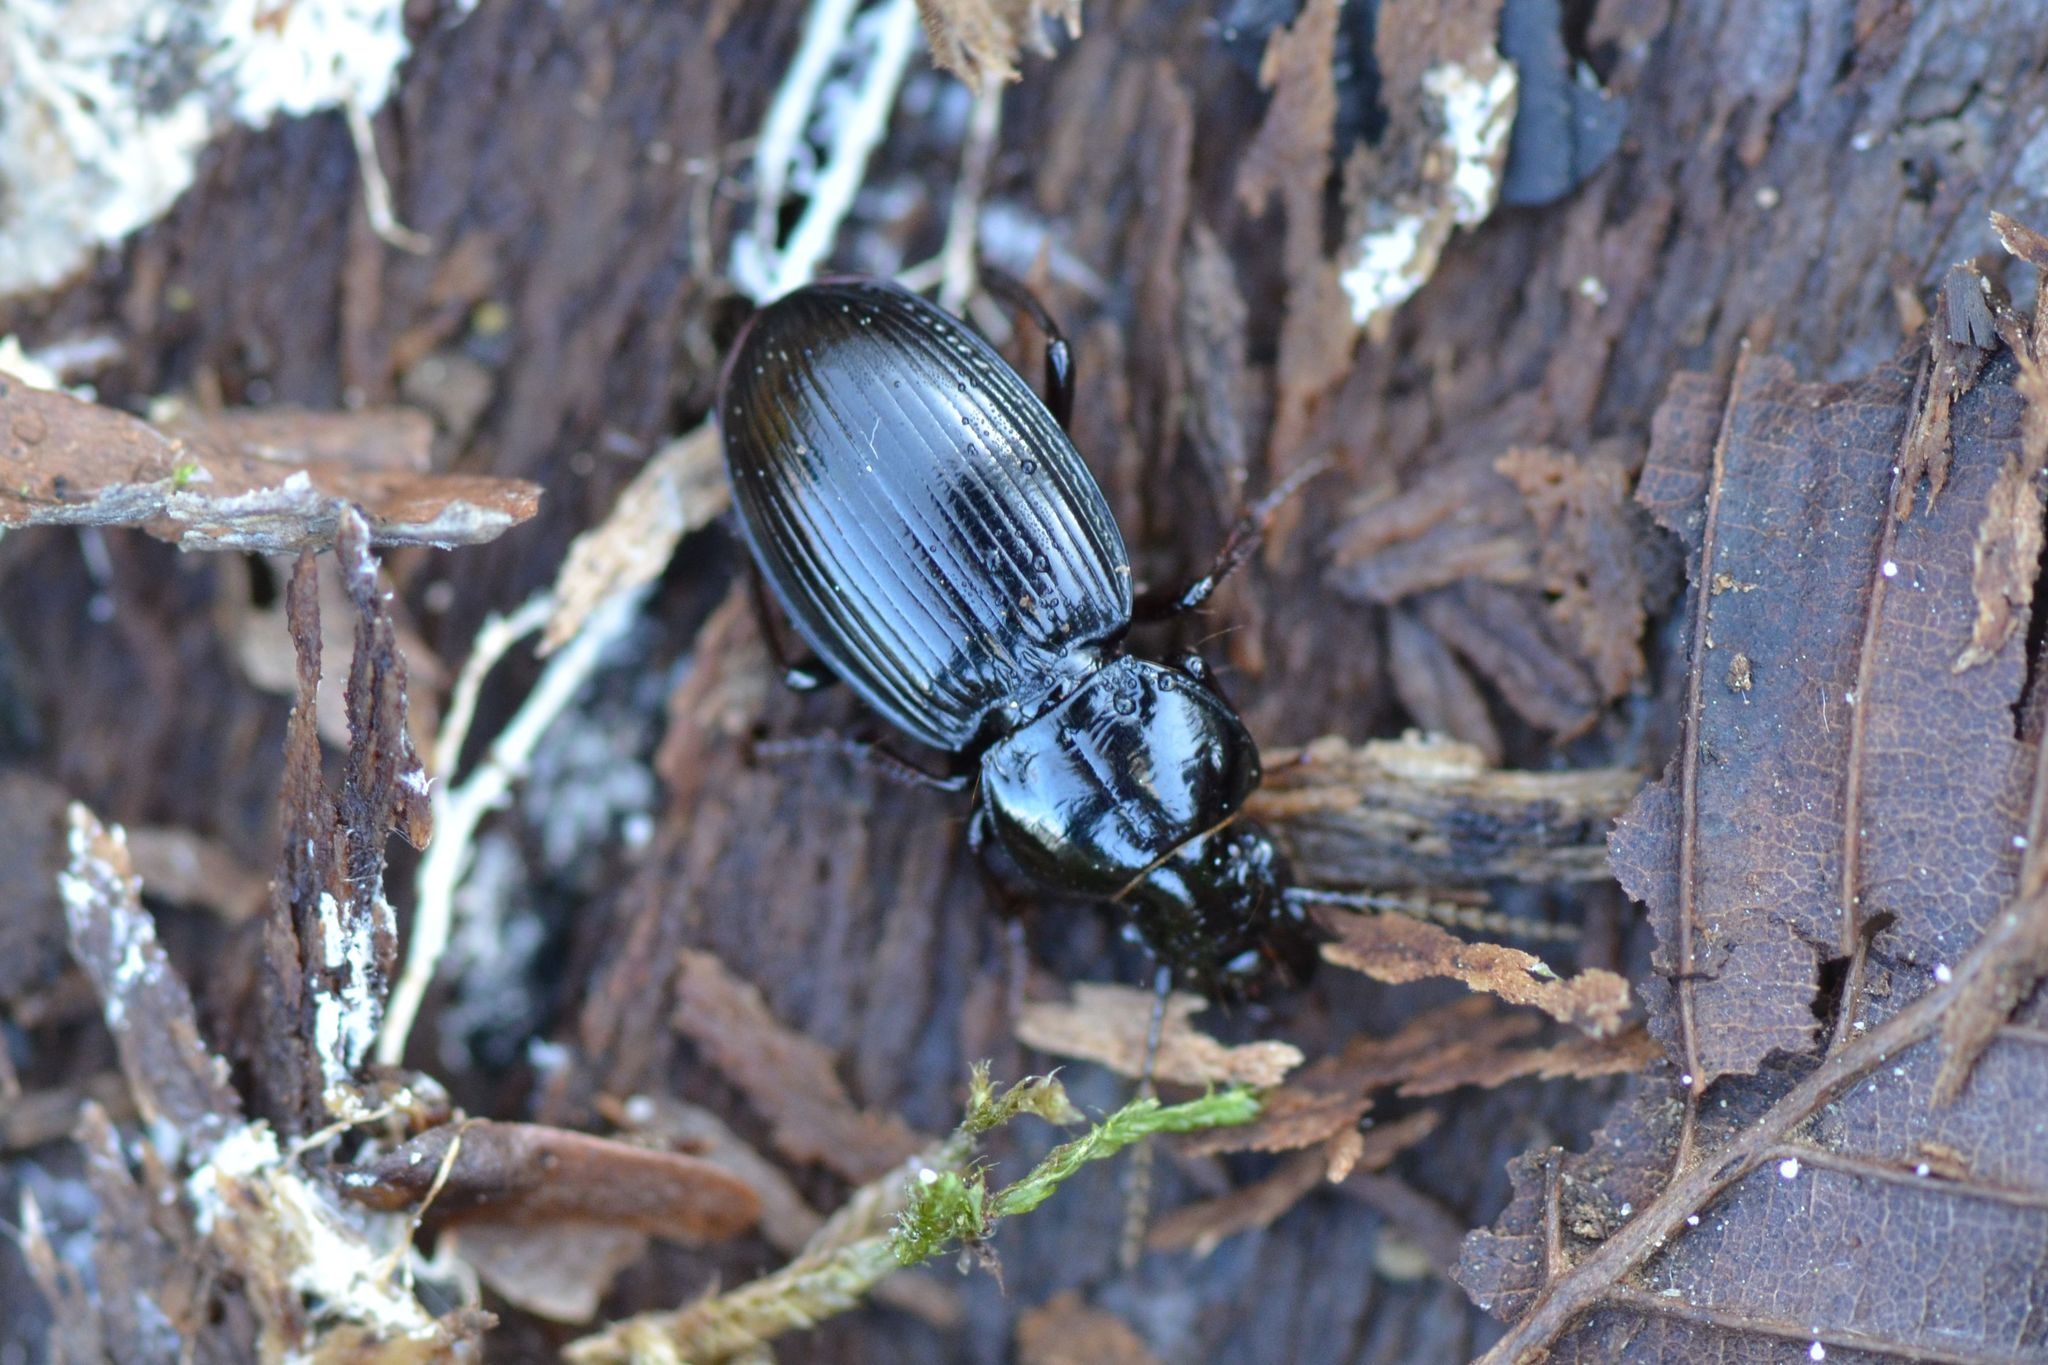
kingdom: Animalia
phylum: Arthropoda
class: Insecta
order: Coleoptera
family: Carabidae
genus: Molops
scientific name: Molops elatus
